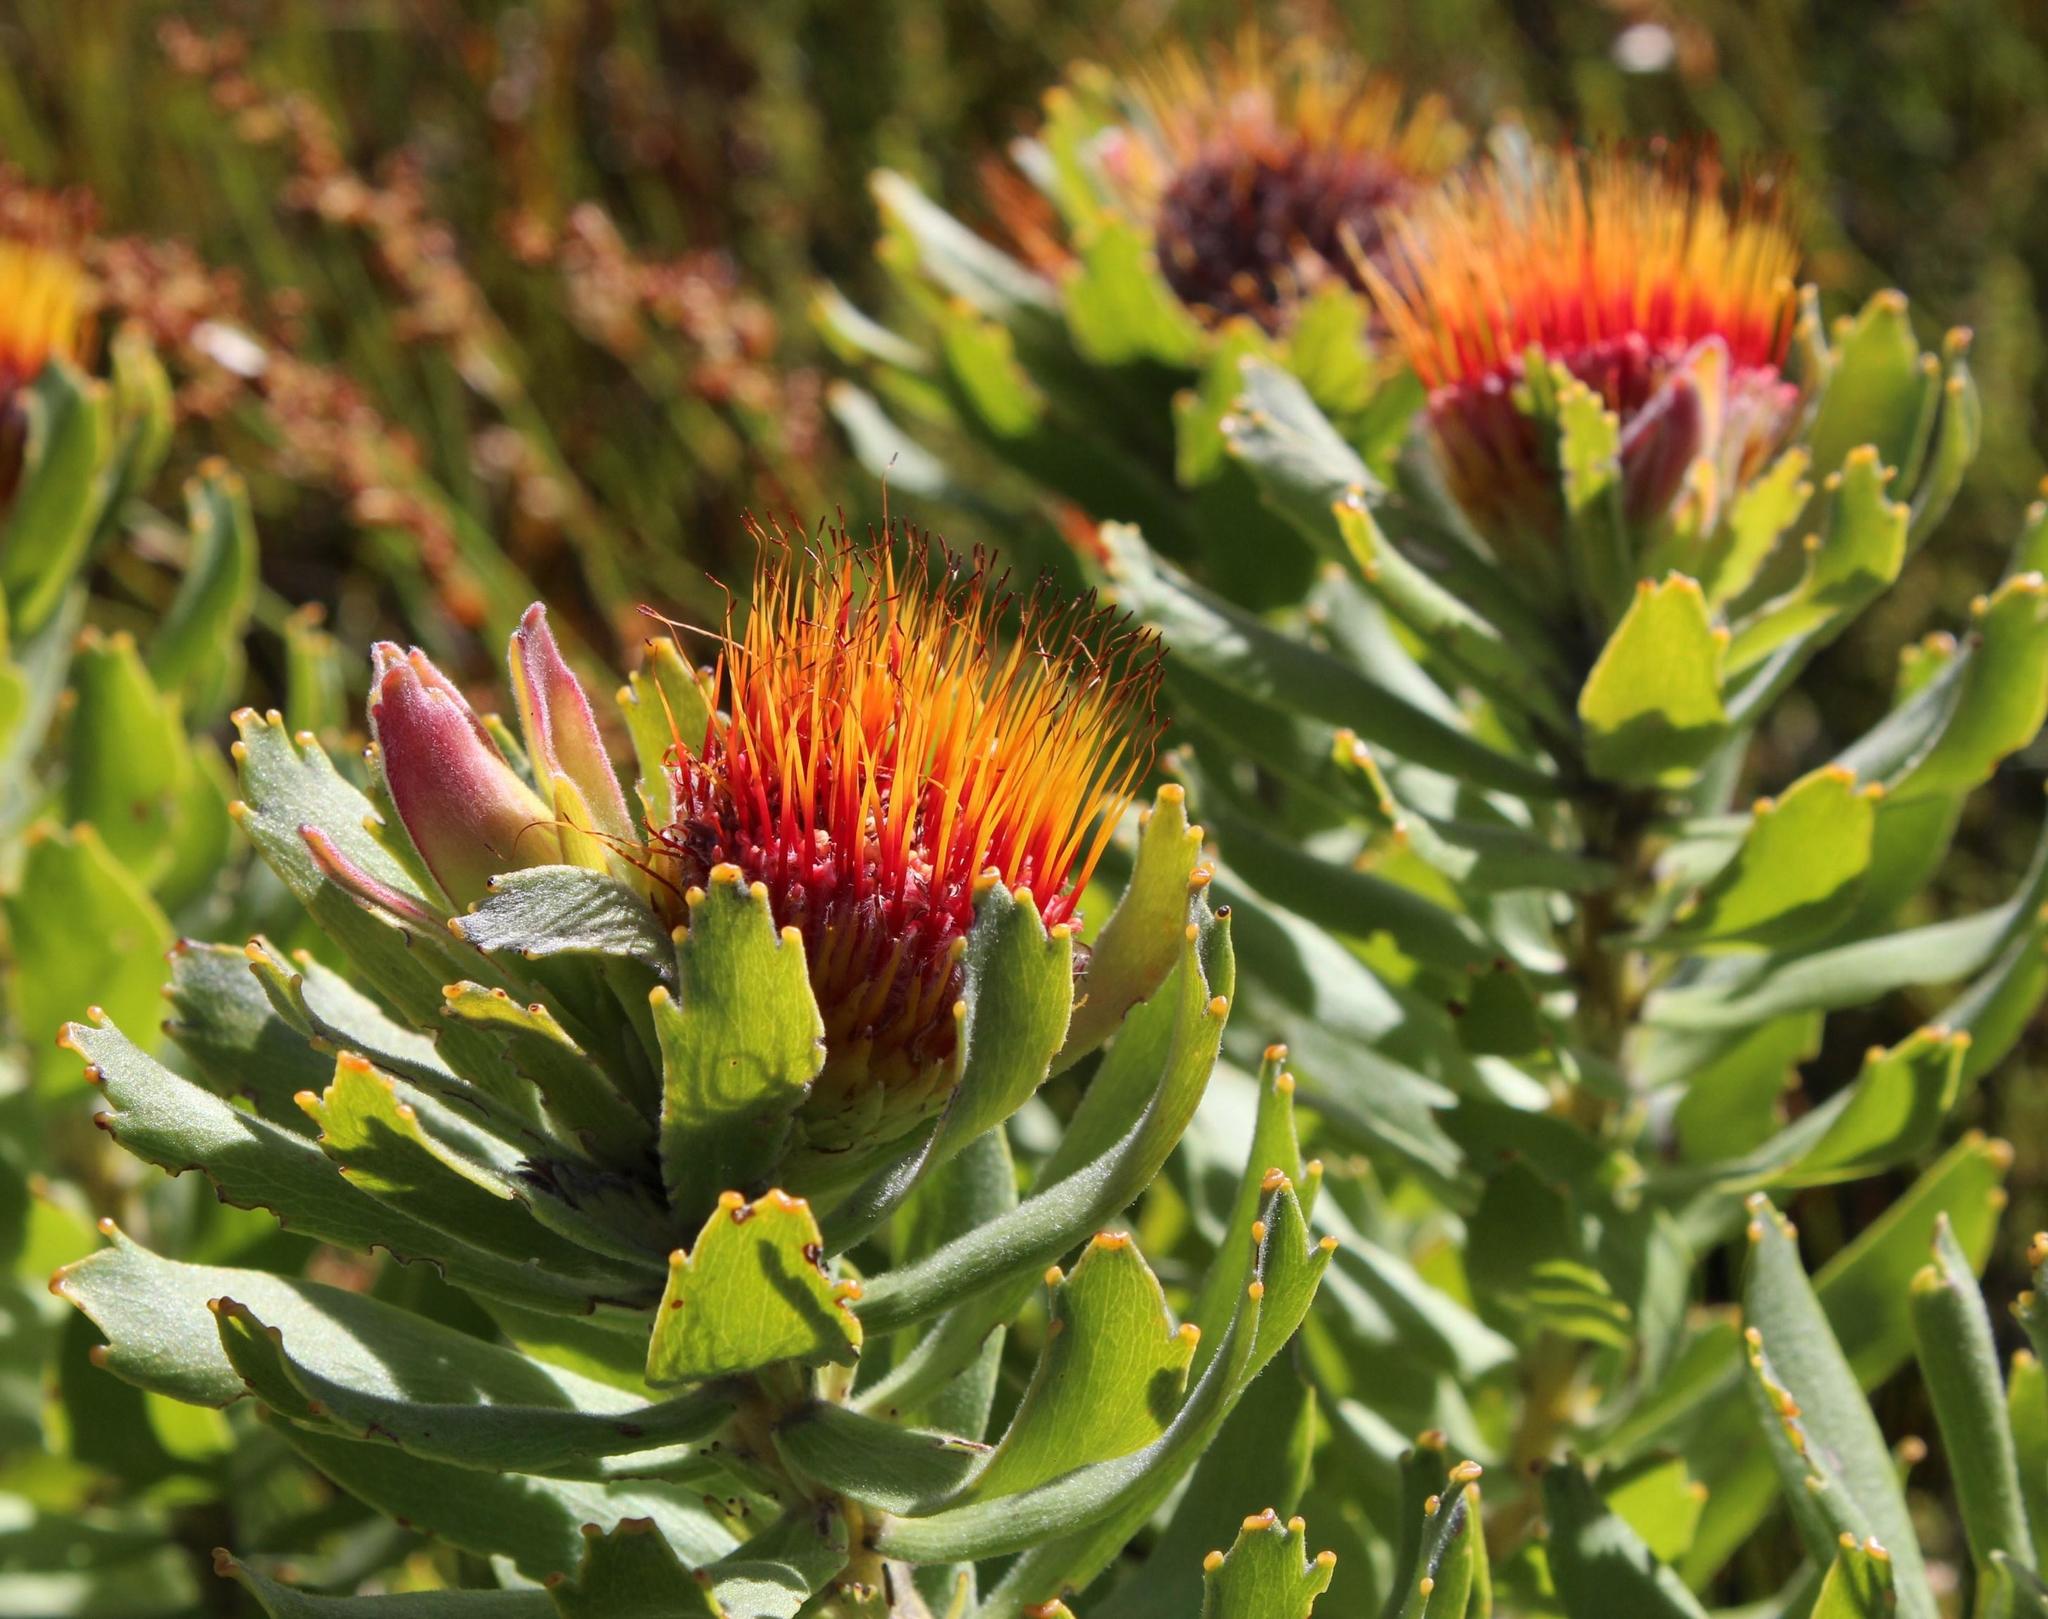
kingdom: Plantae
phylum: Tracheophyta
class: Magnoliopsida
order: Proteales
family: Proteaceae
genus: Leucospermum
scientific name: Leucospermum oleifolium
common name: Matches
